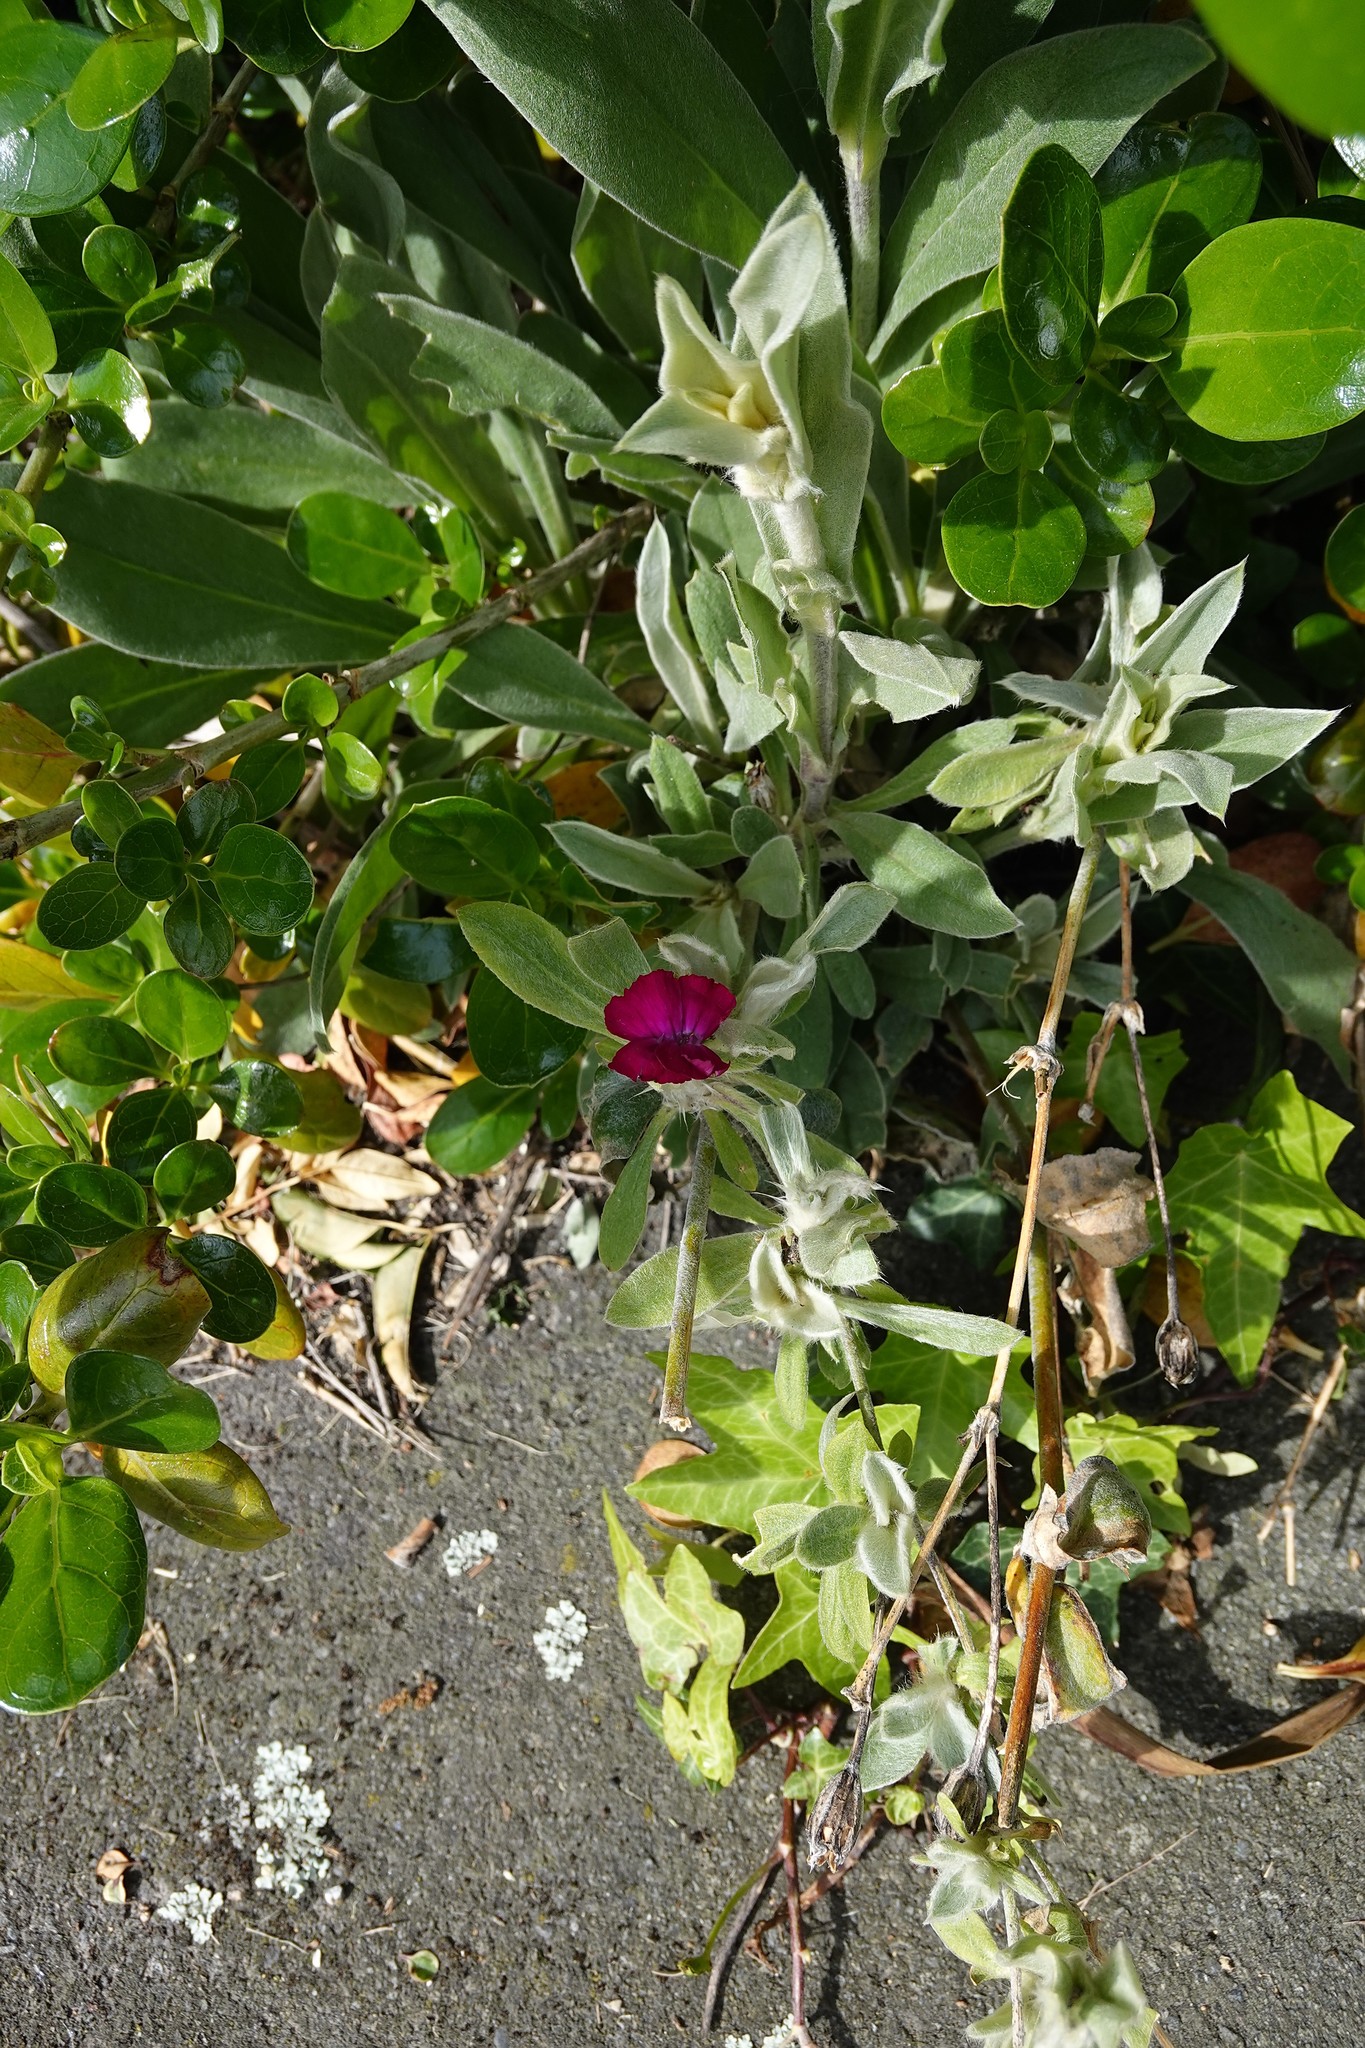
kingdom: Plantae
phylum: Tracheophyta
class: Magnoliopsida
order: Brassicales
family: Brassicaceae
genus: Matthiola
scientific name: Matthiola incana
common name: Hoary stock
